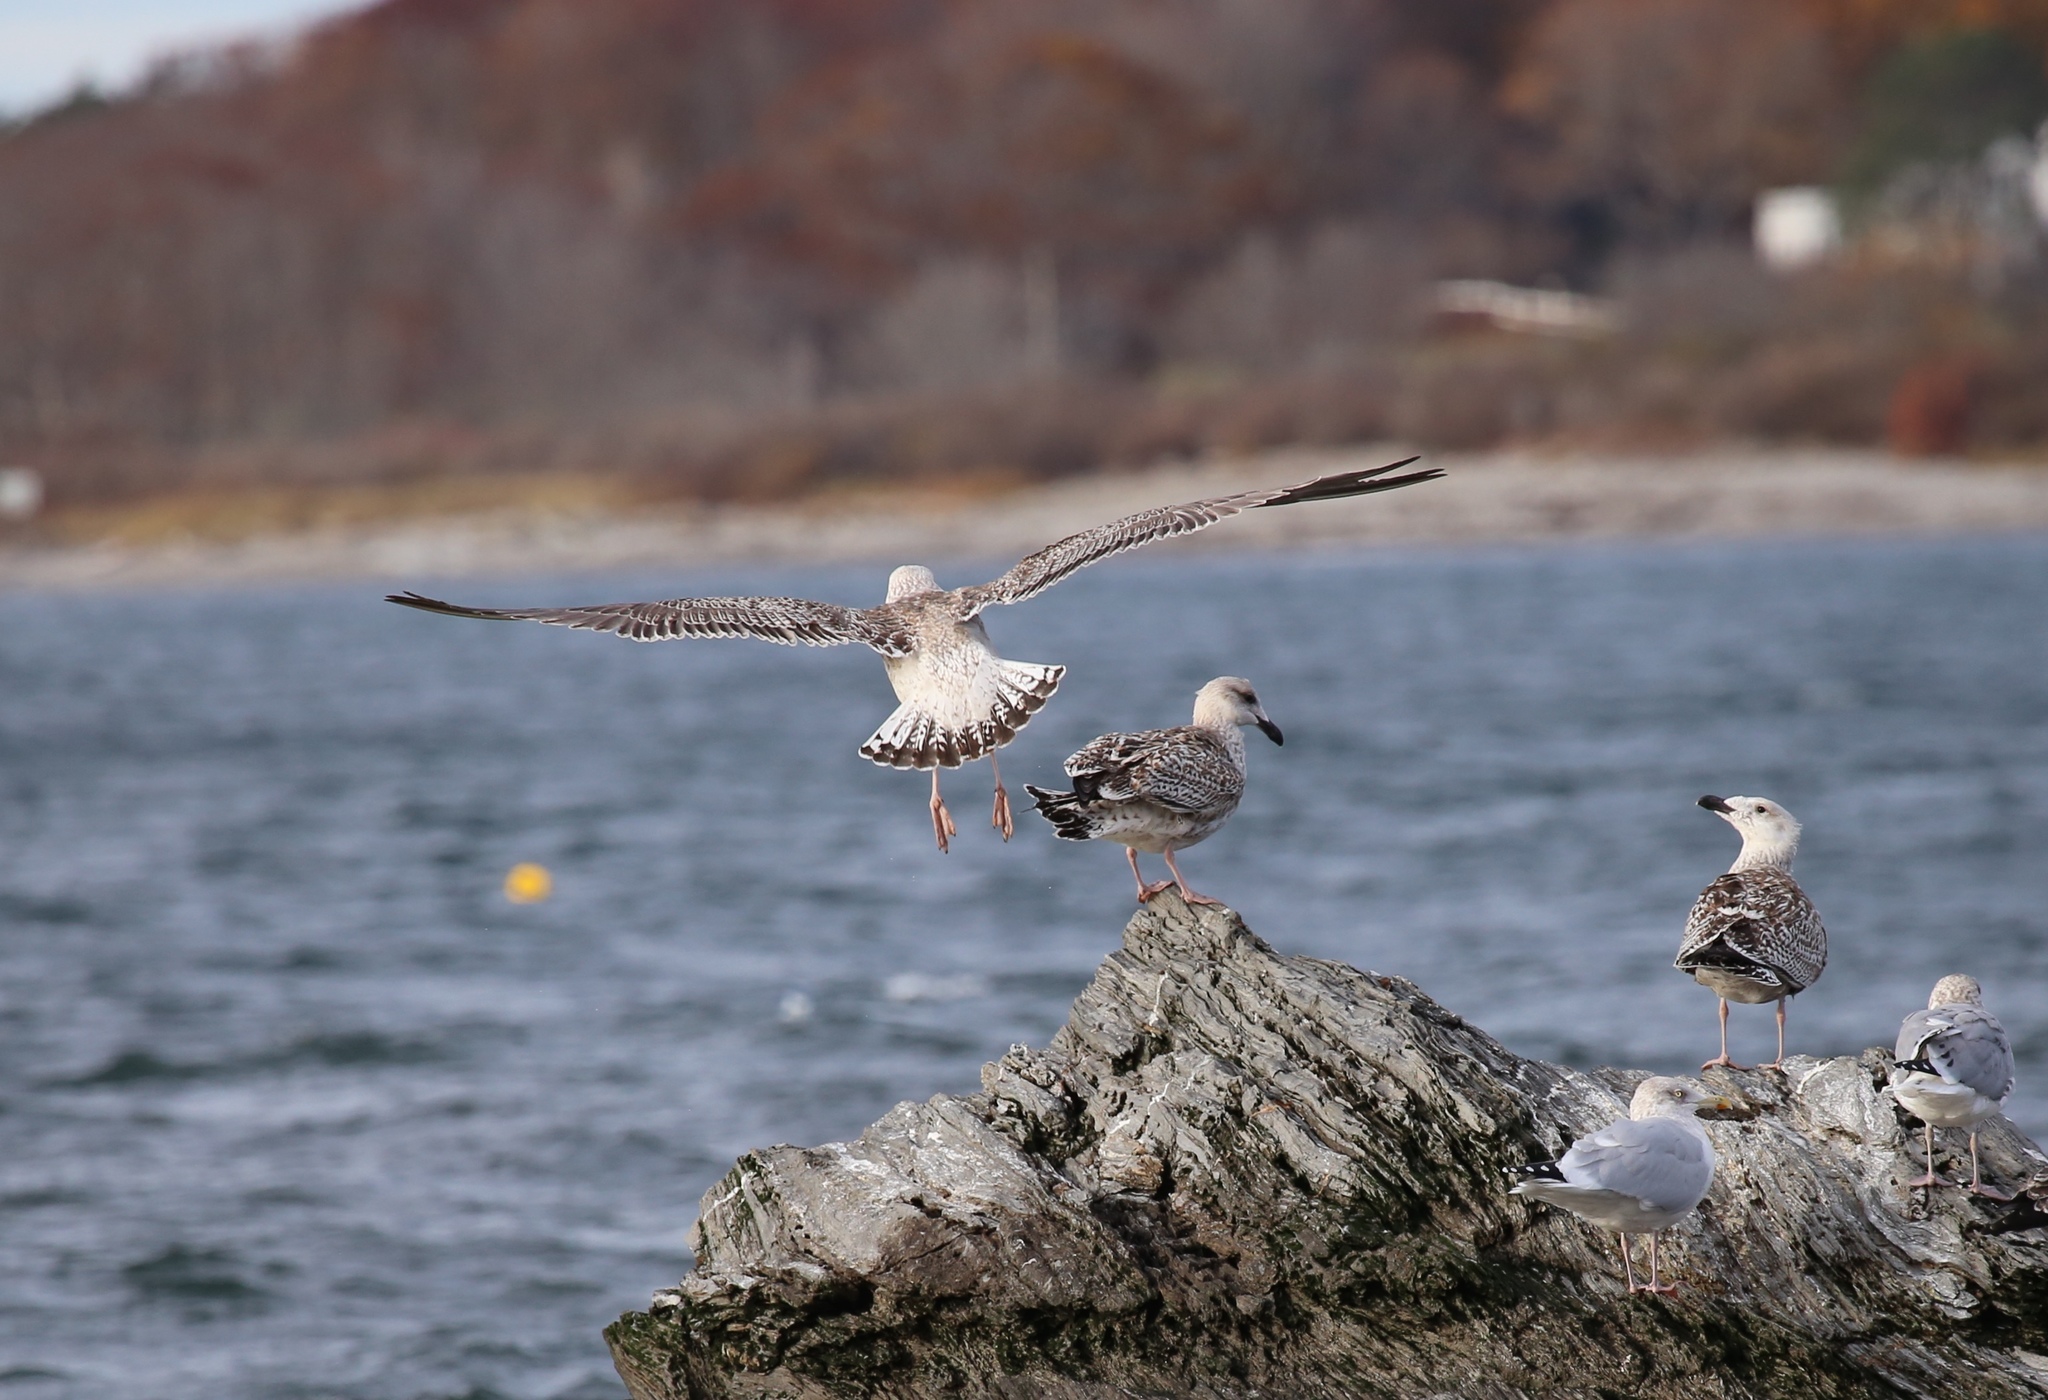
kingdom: Animalia
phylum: Chordata
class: Aves
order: Charadriiformes
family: Laridae
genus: Larus
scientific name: Larus marinus
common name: Great black-backed gull
